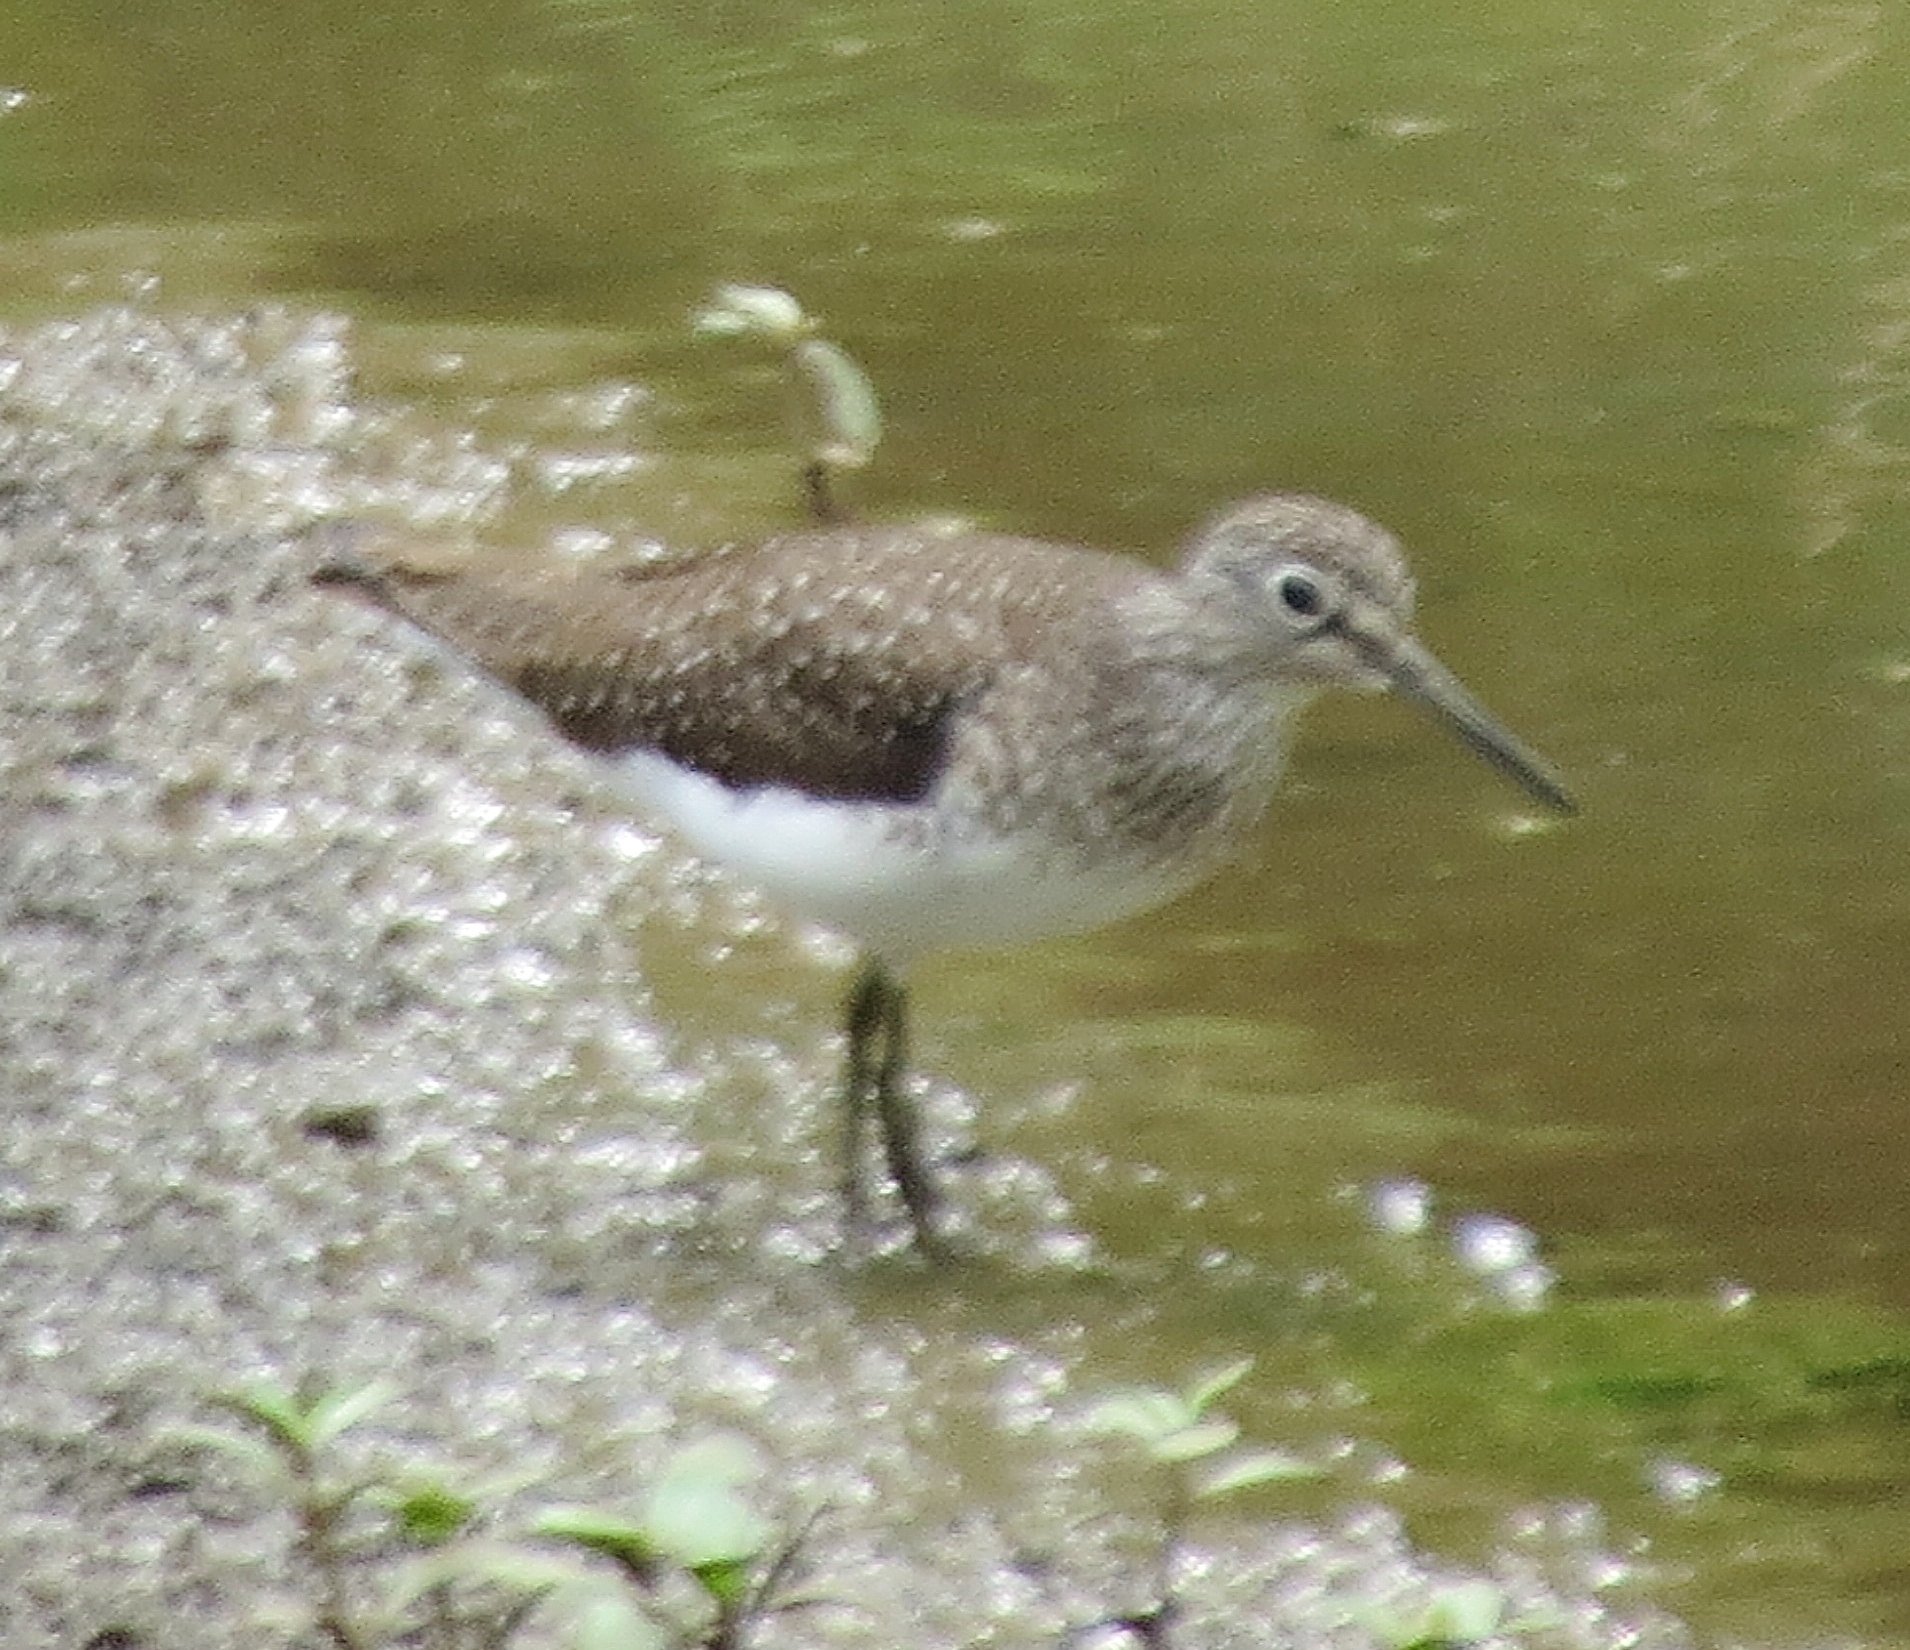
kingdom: Animalia
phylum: Chordata
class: Aves
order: Charadriiformes
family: Scolopacidae
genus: Tringa
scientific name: Tringa solitaria
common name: Solitary sandpiper
